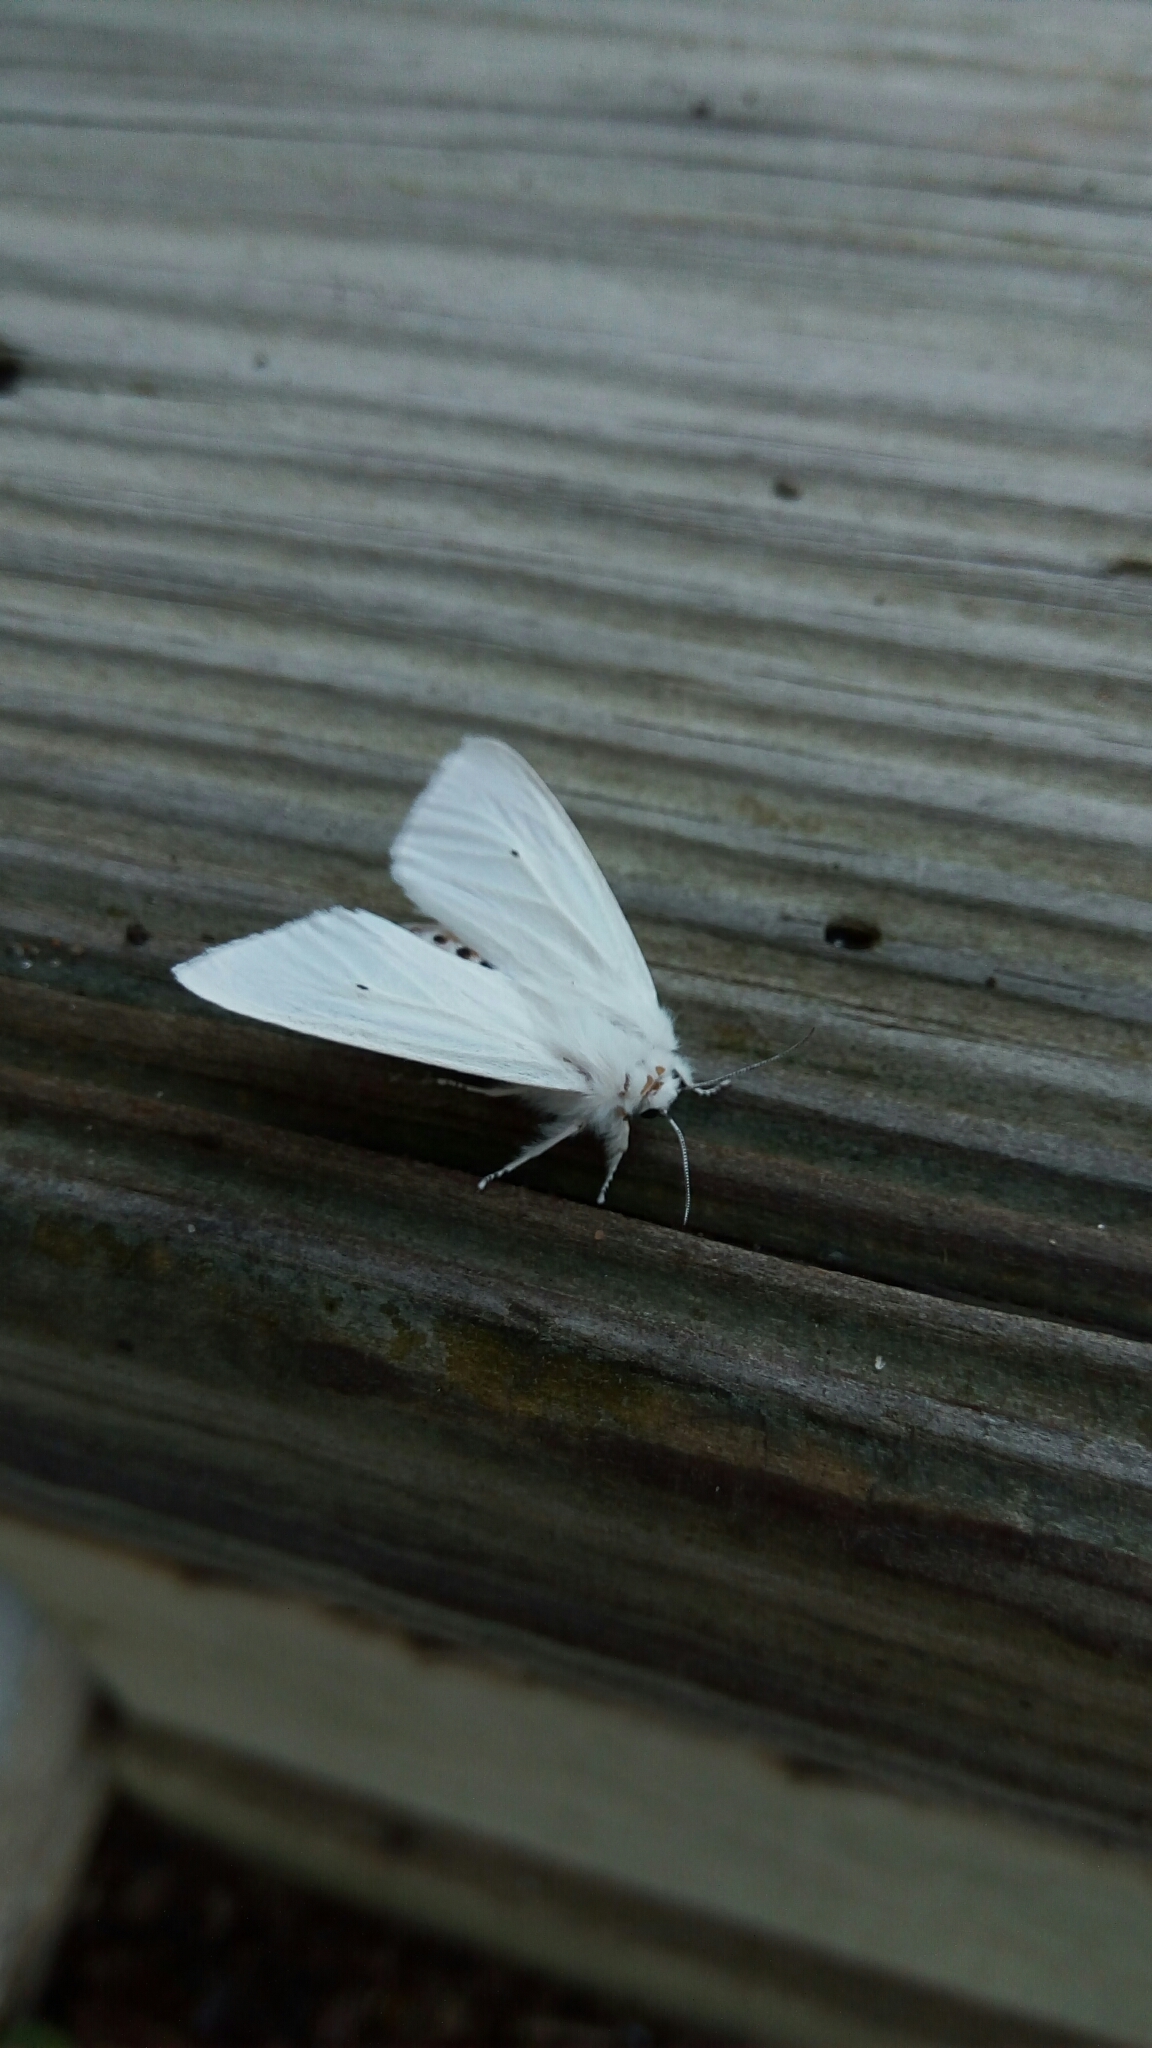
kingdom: Animalia
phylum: Arthropoda
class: Insecta
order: Lepidoptera
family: Erebidae
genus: Spilosoma
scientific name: Spilosoma virginica
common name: Virginia tiger moth
